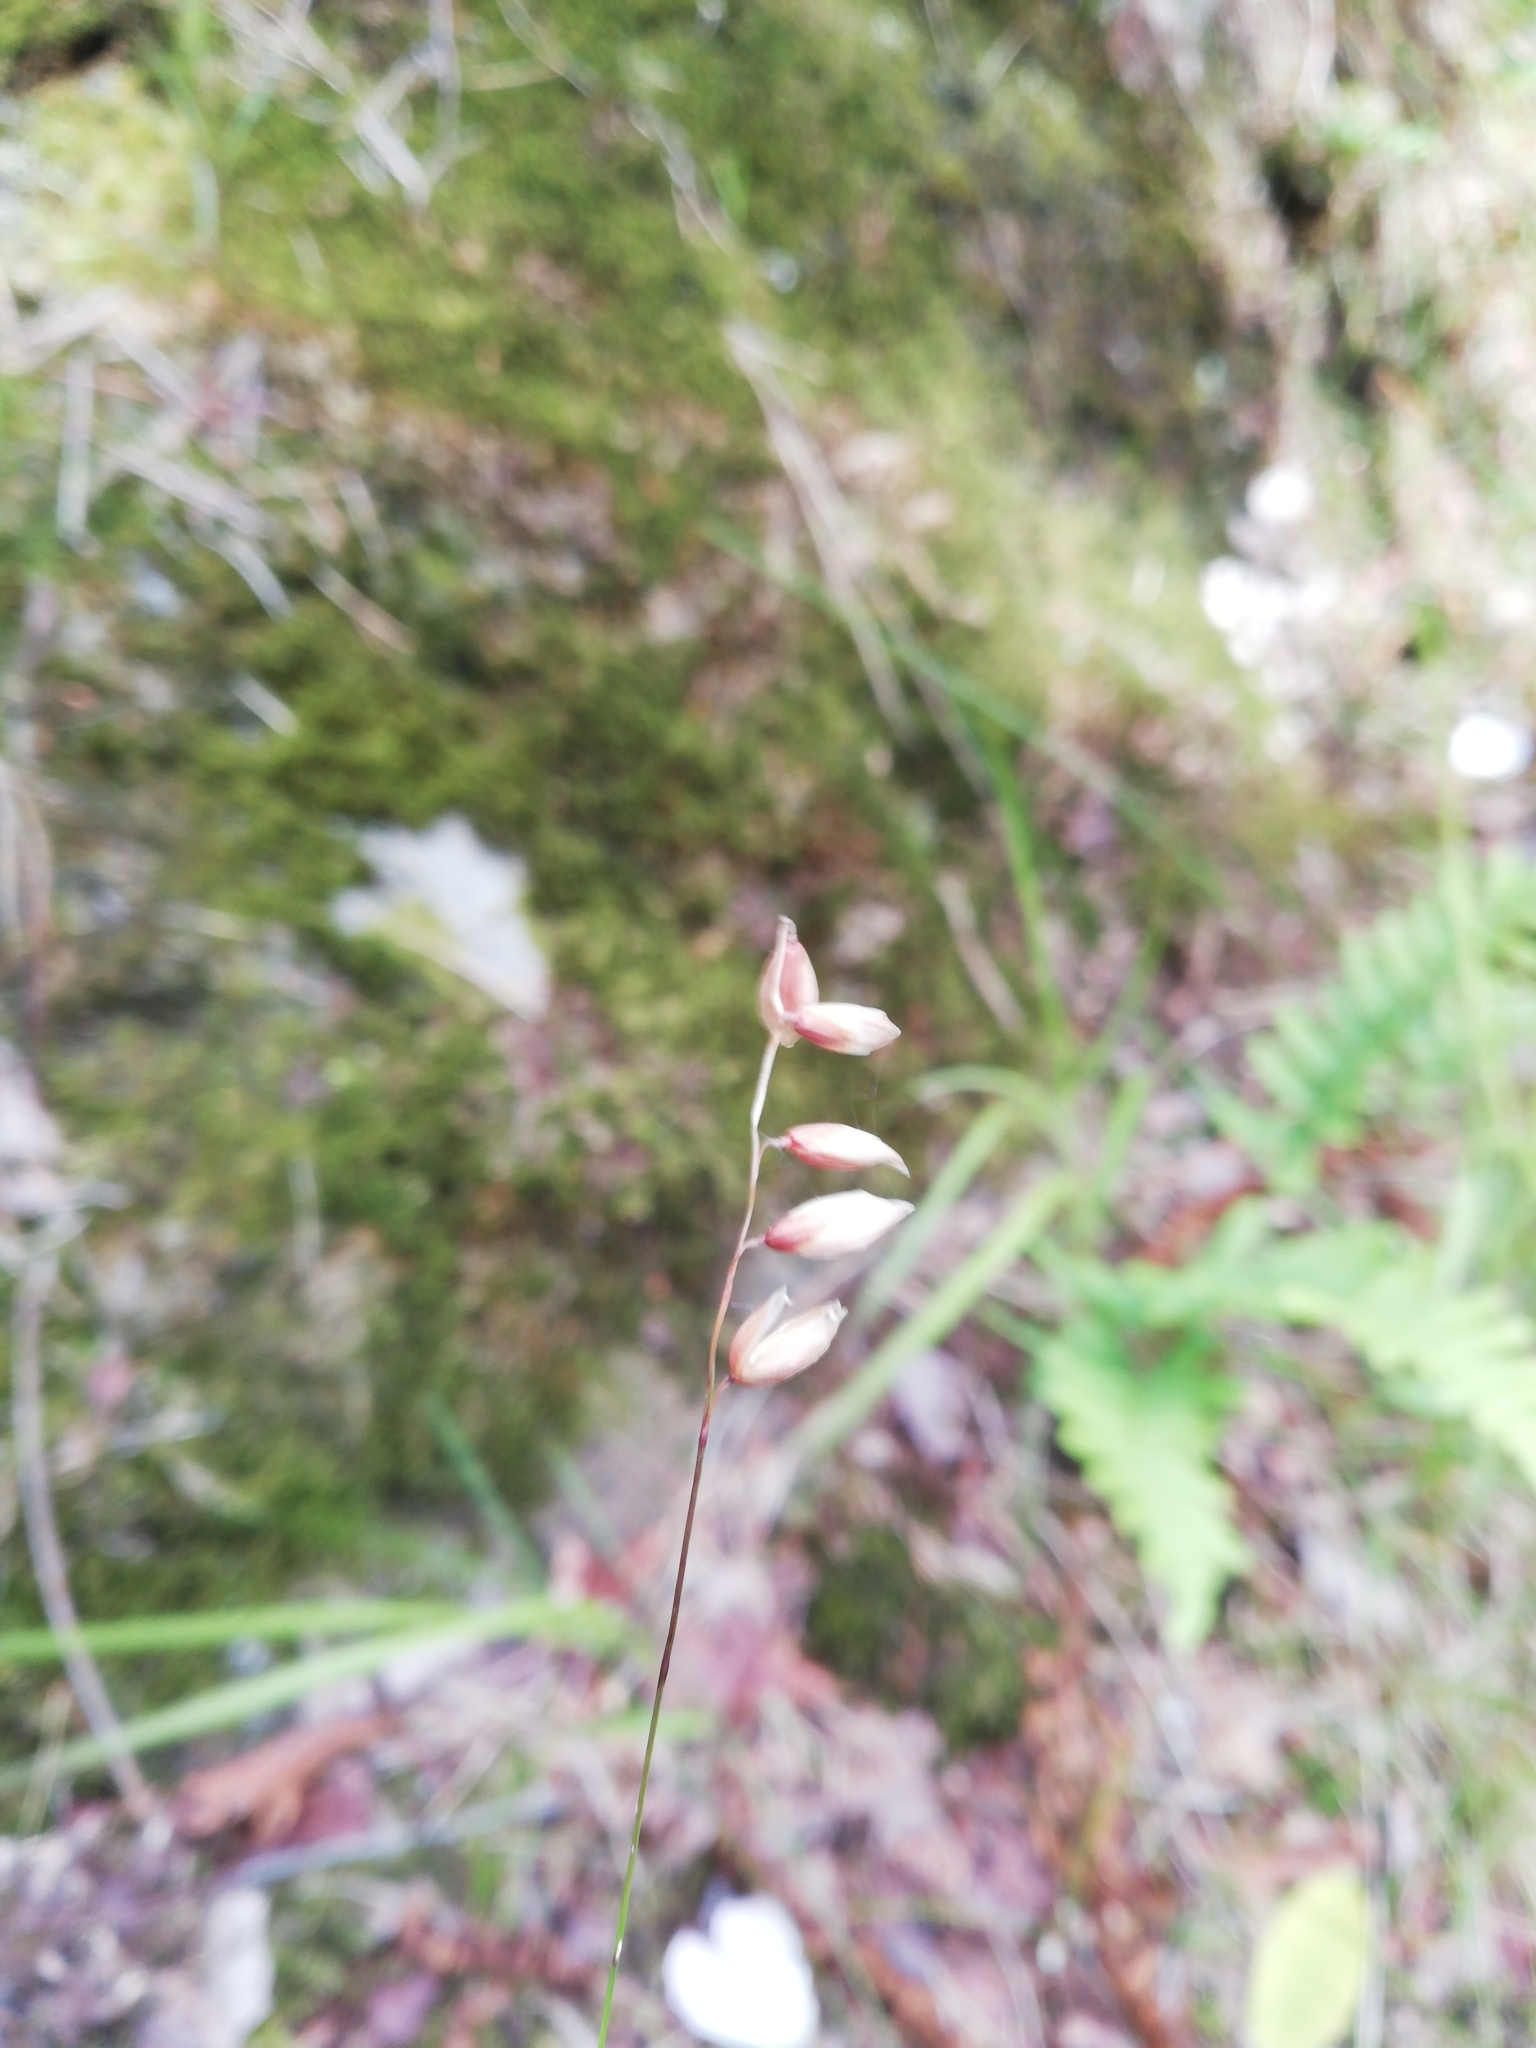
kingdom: Plantae
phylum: Tracheophyta
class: Liliopsida
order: Poales
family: Poaceae
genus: Melica
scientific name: Melica nutans
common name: Mountain melick
